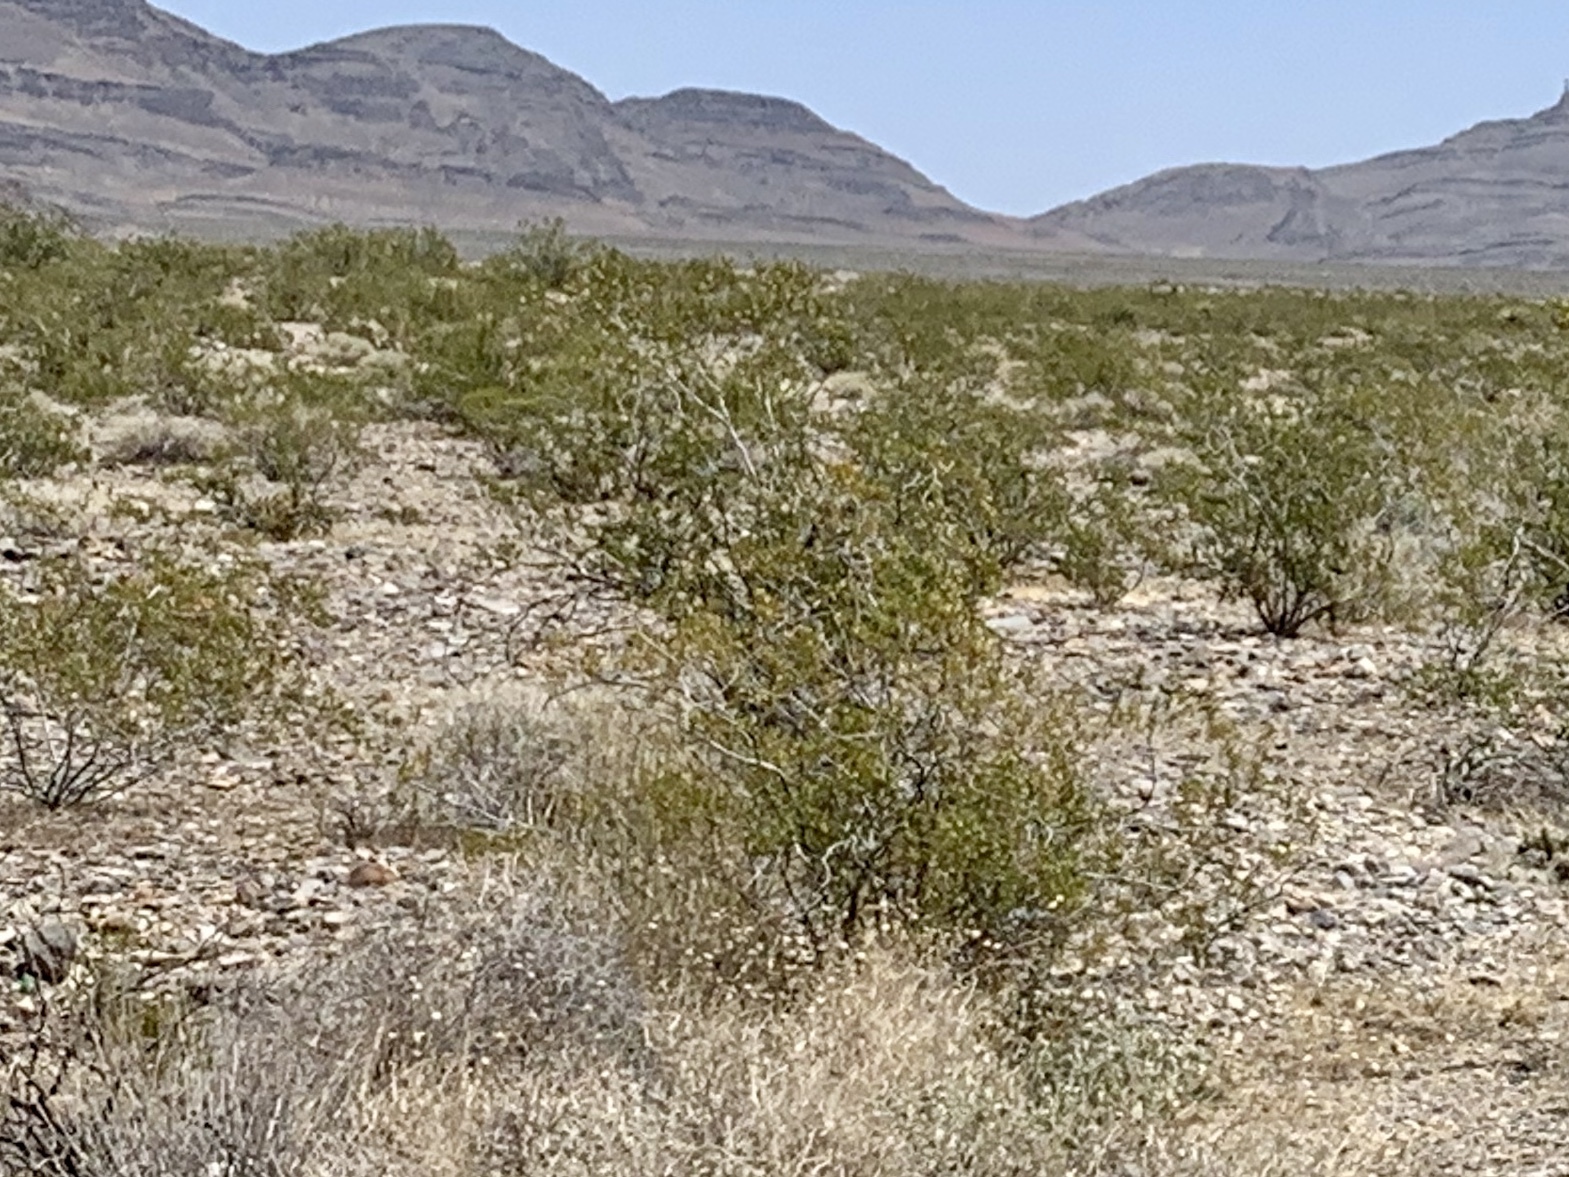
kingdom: Plantae
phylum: Tracheophyta
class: Magnoliopsida
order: Zygophyllales
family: Zygophyllaceae
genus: Larrea
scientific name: Larrea tridentata
